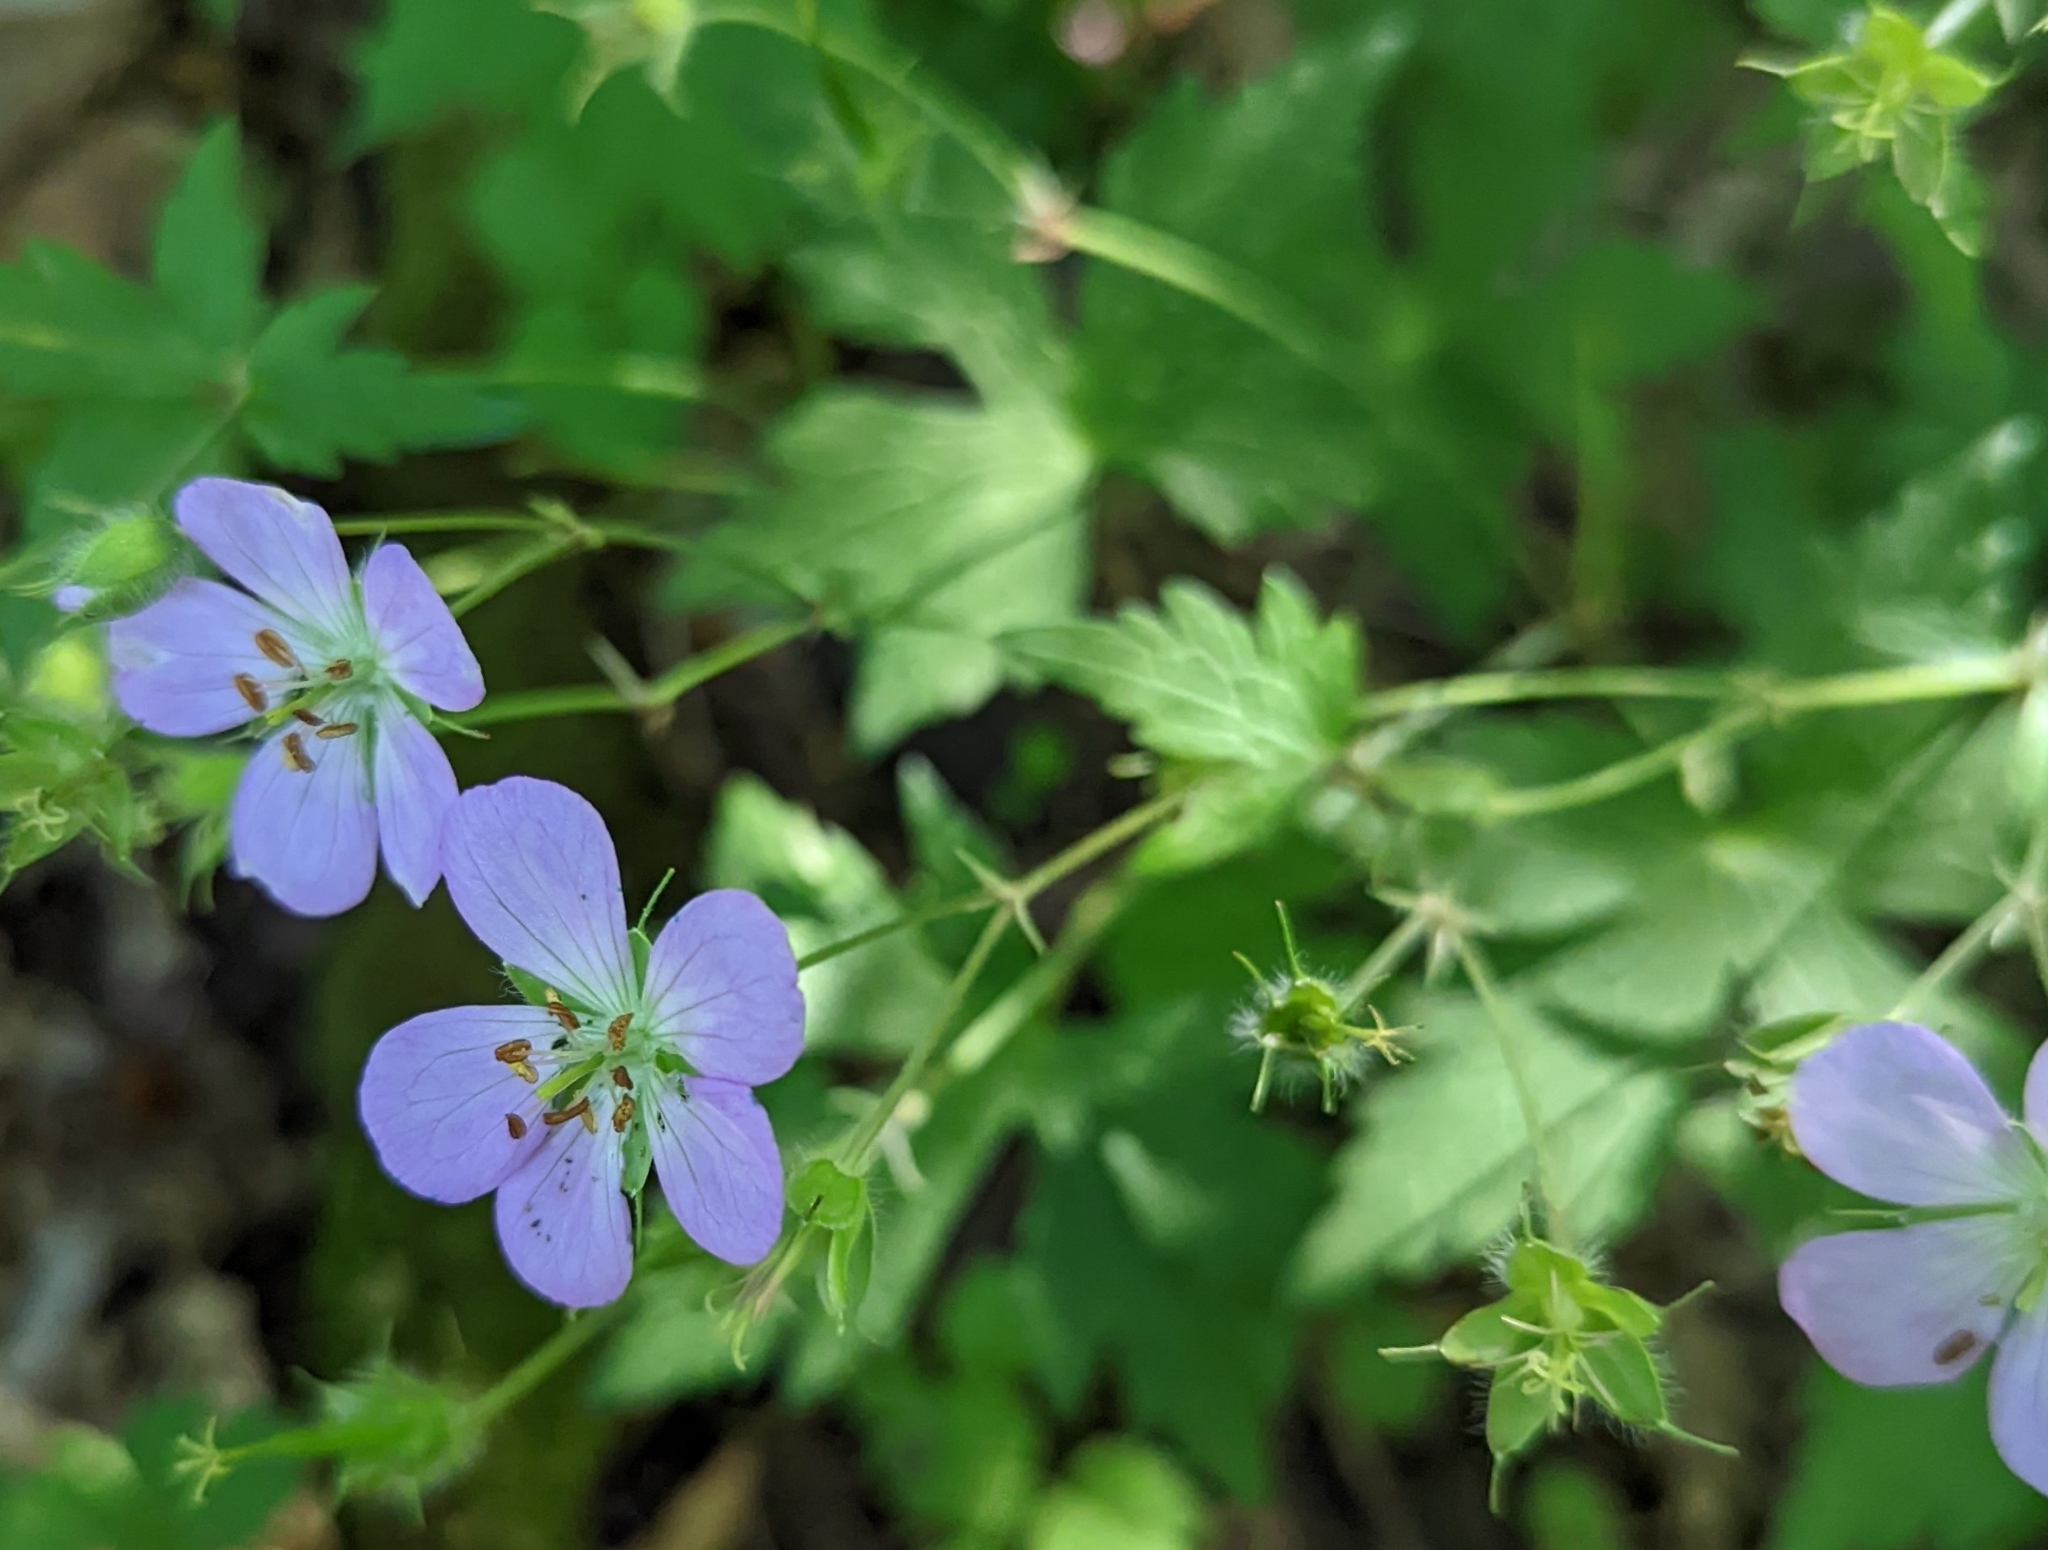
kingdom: Plantae
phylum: Tracheophyta
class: Magnoliopsida
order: Geraniales
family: Geraniaceae
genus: Geranium
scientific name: Geranium maculatum
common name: Spotted geranium
